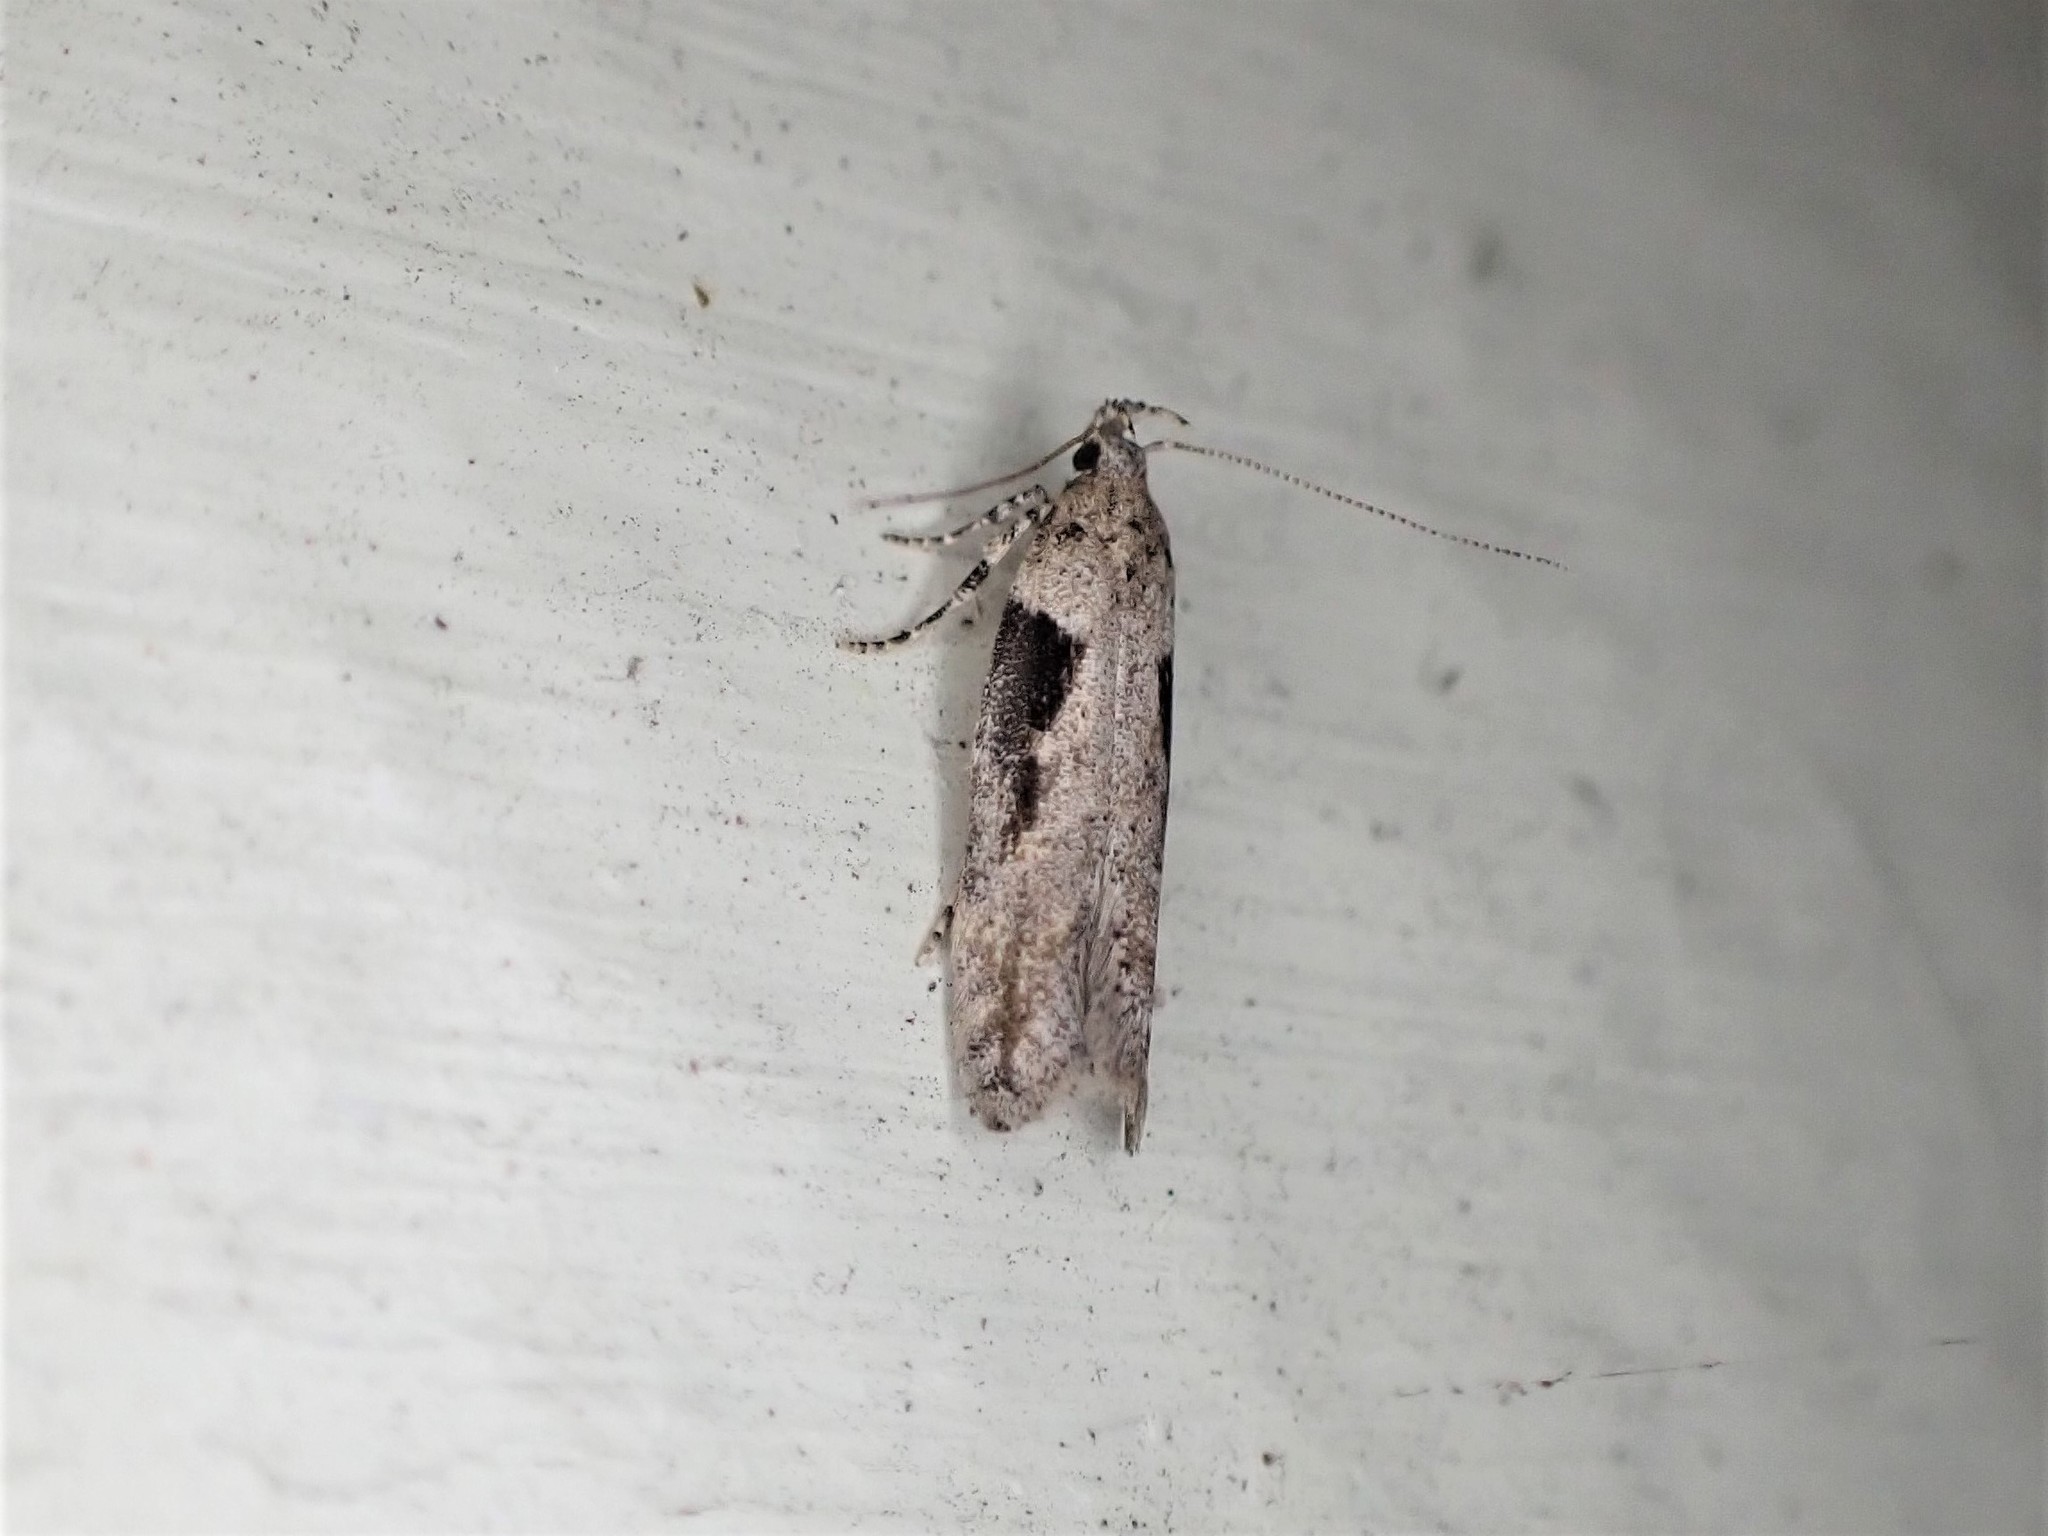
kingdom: Animalia
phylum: Arthropoda
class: Insecta
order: Lepidoptera
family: Gelechiidae
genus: Symmetrischema
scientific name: Symmetrischema tangolias
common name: Moth
